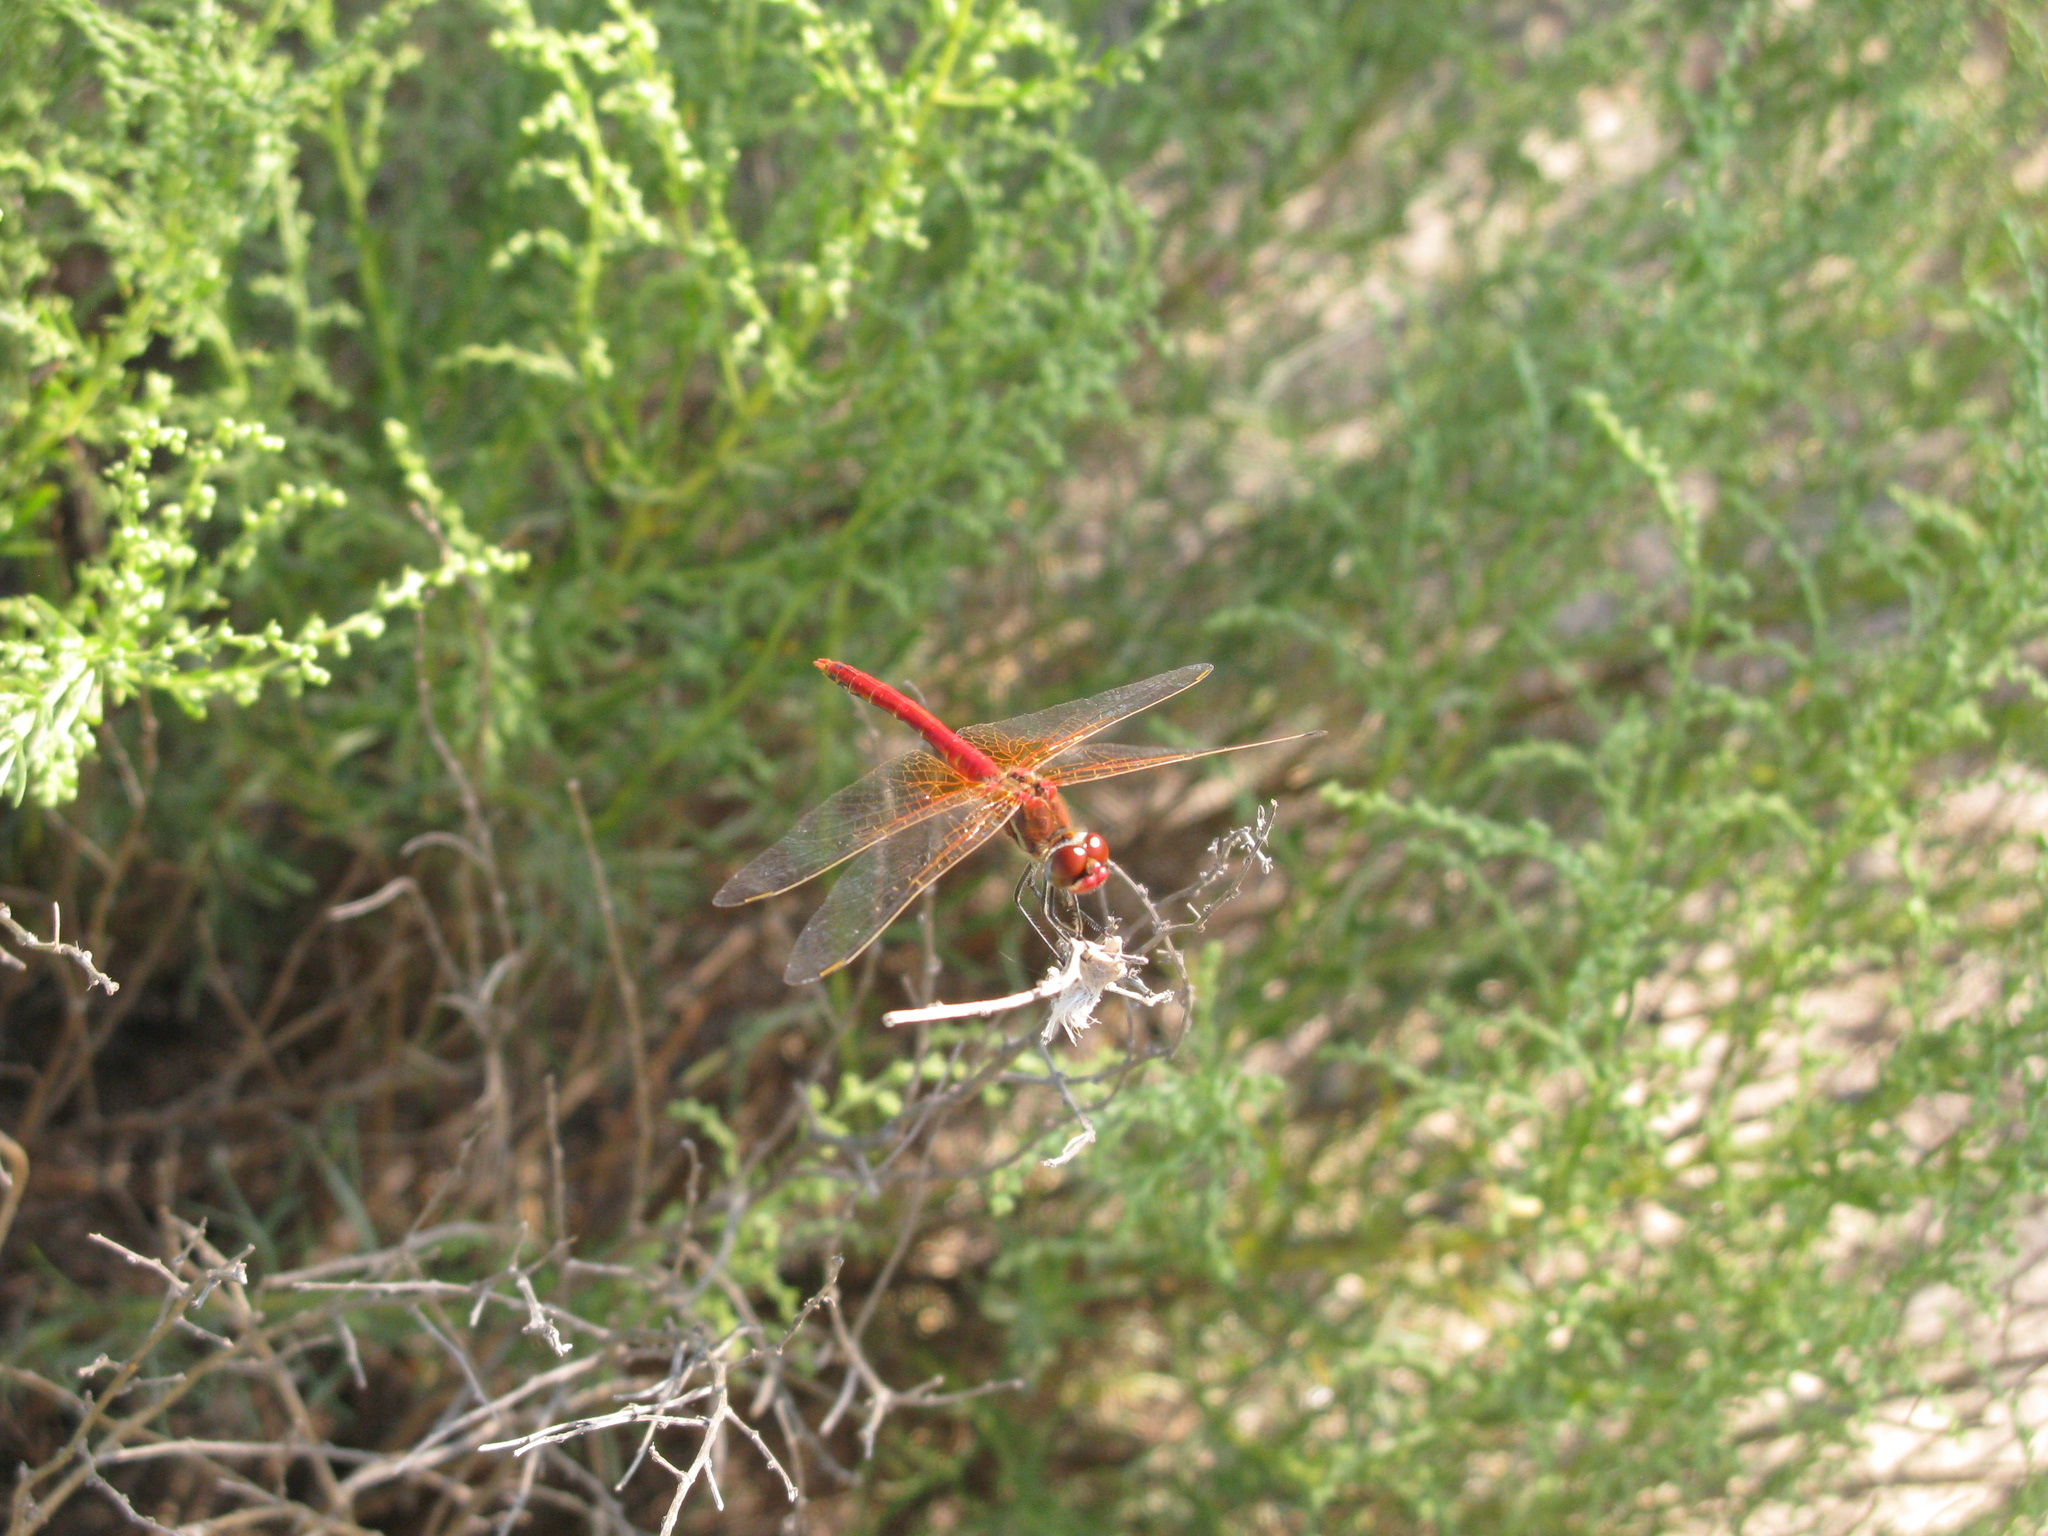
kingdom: Animalia
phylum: Arthropoda
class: Insecta
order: Odonata
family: Libellulidae
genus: Sympetrum
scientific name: Sympetrum fonscolombii
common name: Red-veined darter
